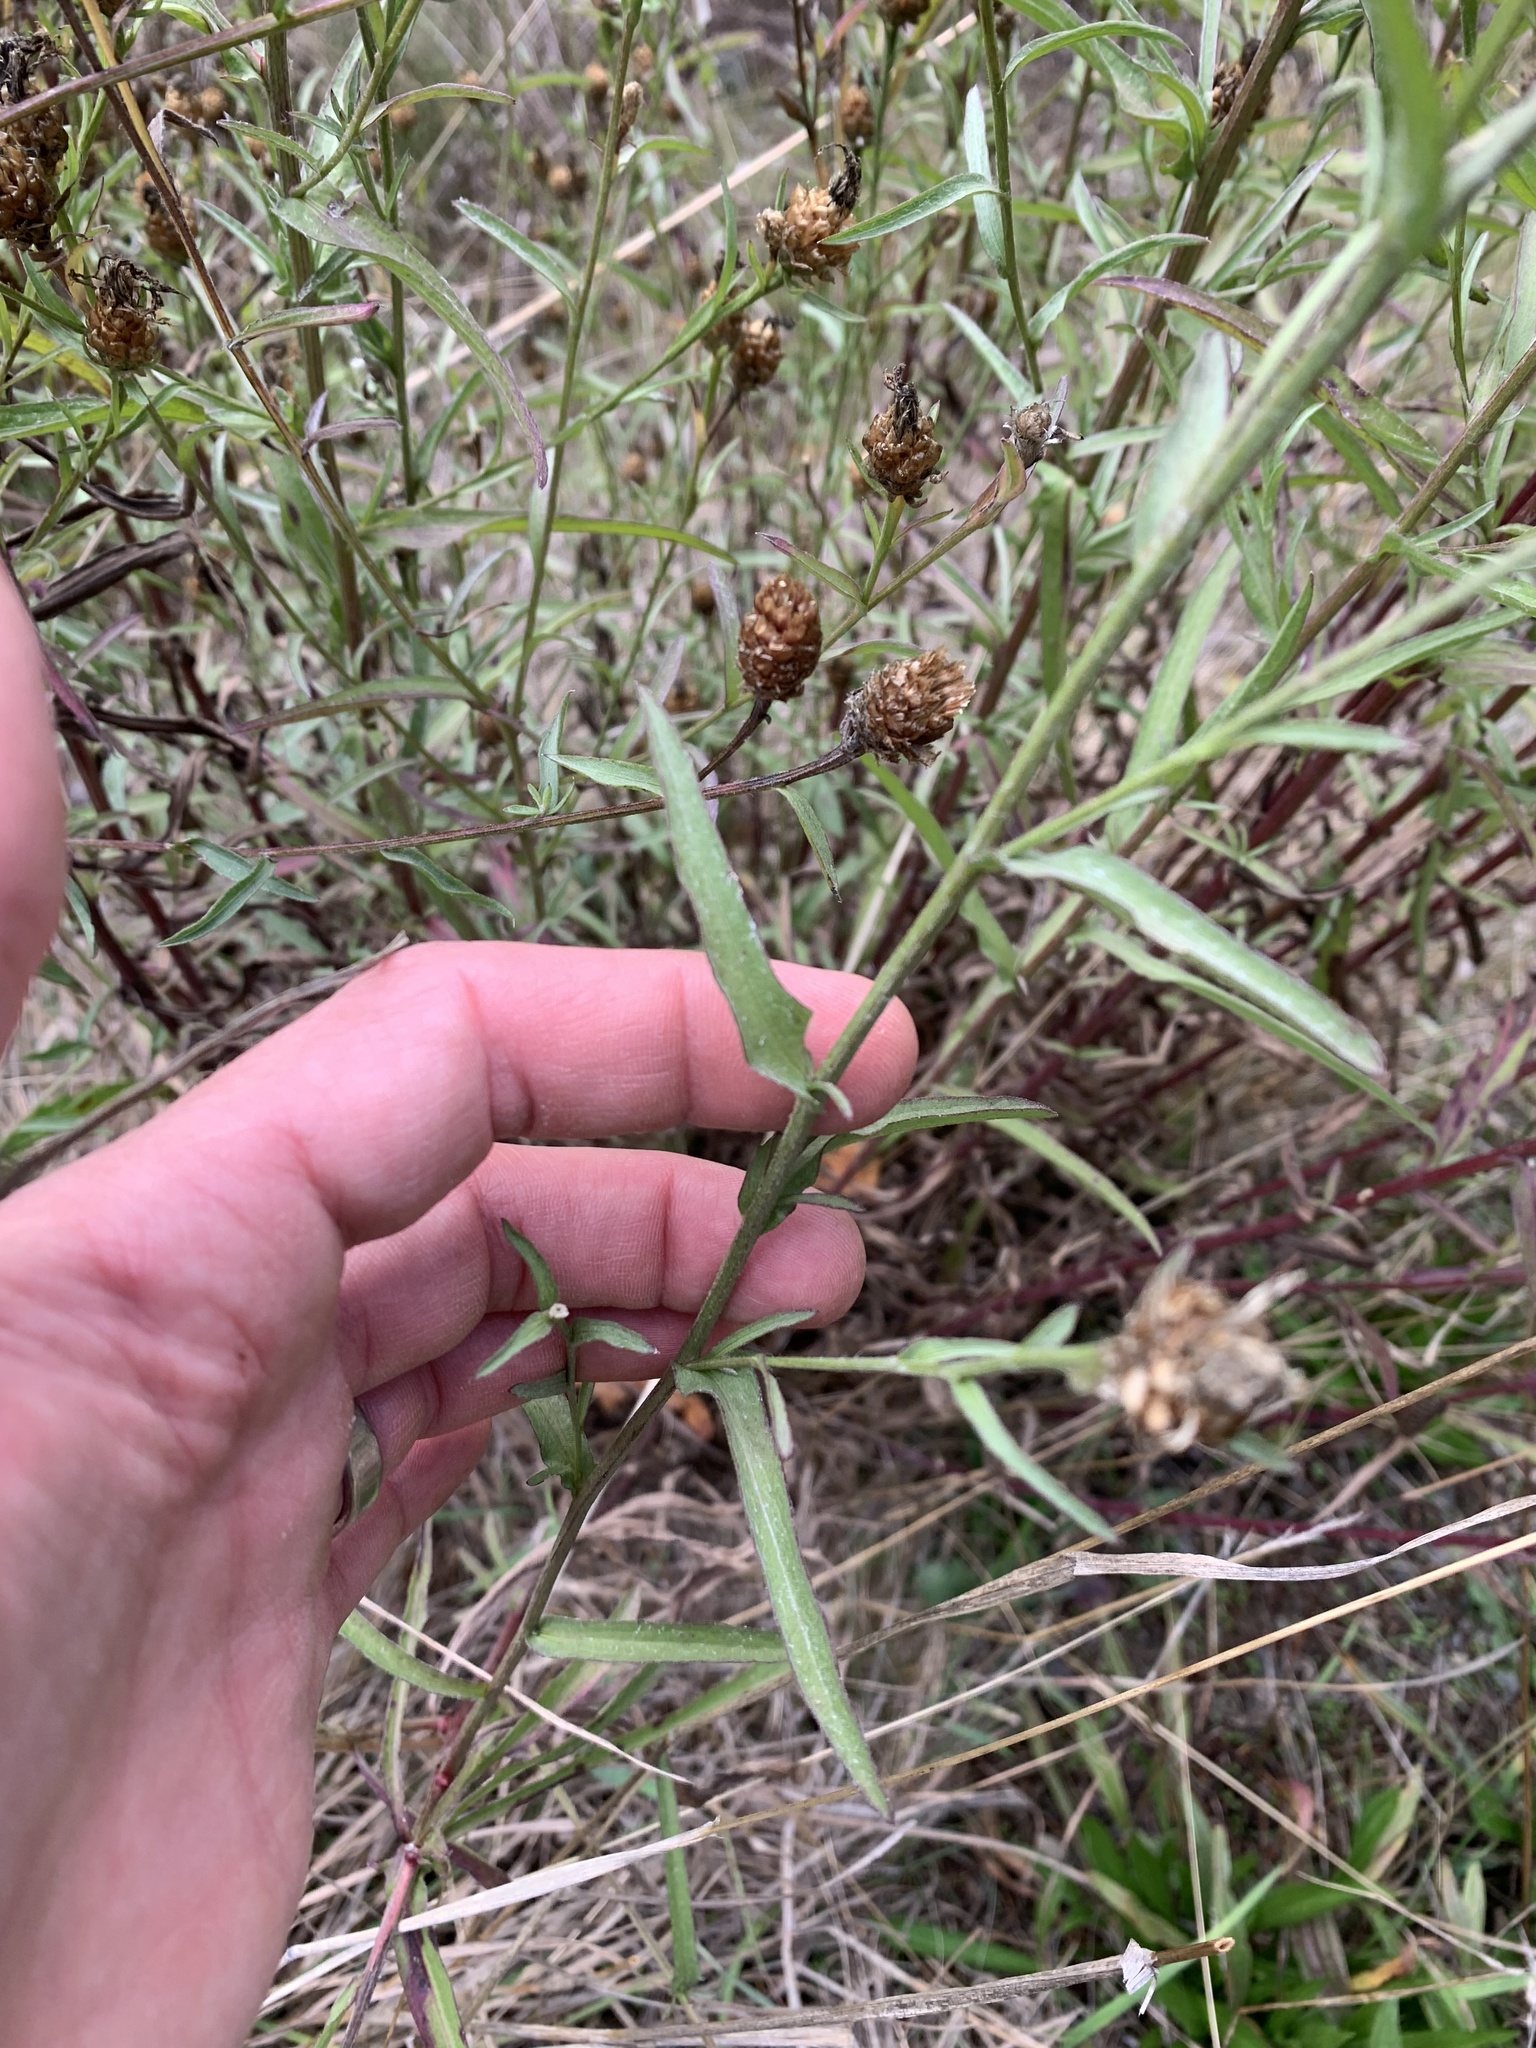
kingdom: Plantae
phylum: Tracheophyta
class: Magnoliopsida
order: Asterales
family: Asteraceae
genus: Centaurea
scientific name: Centaurea jacea
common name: Brown knapweed
